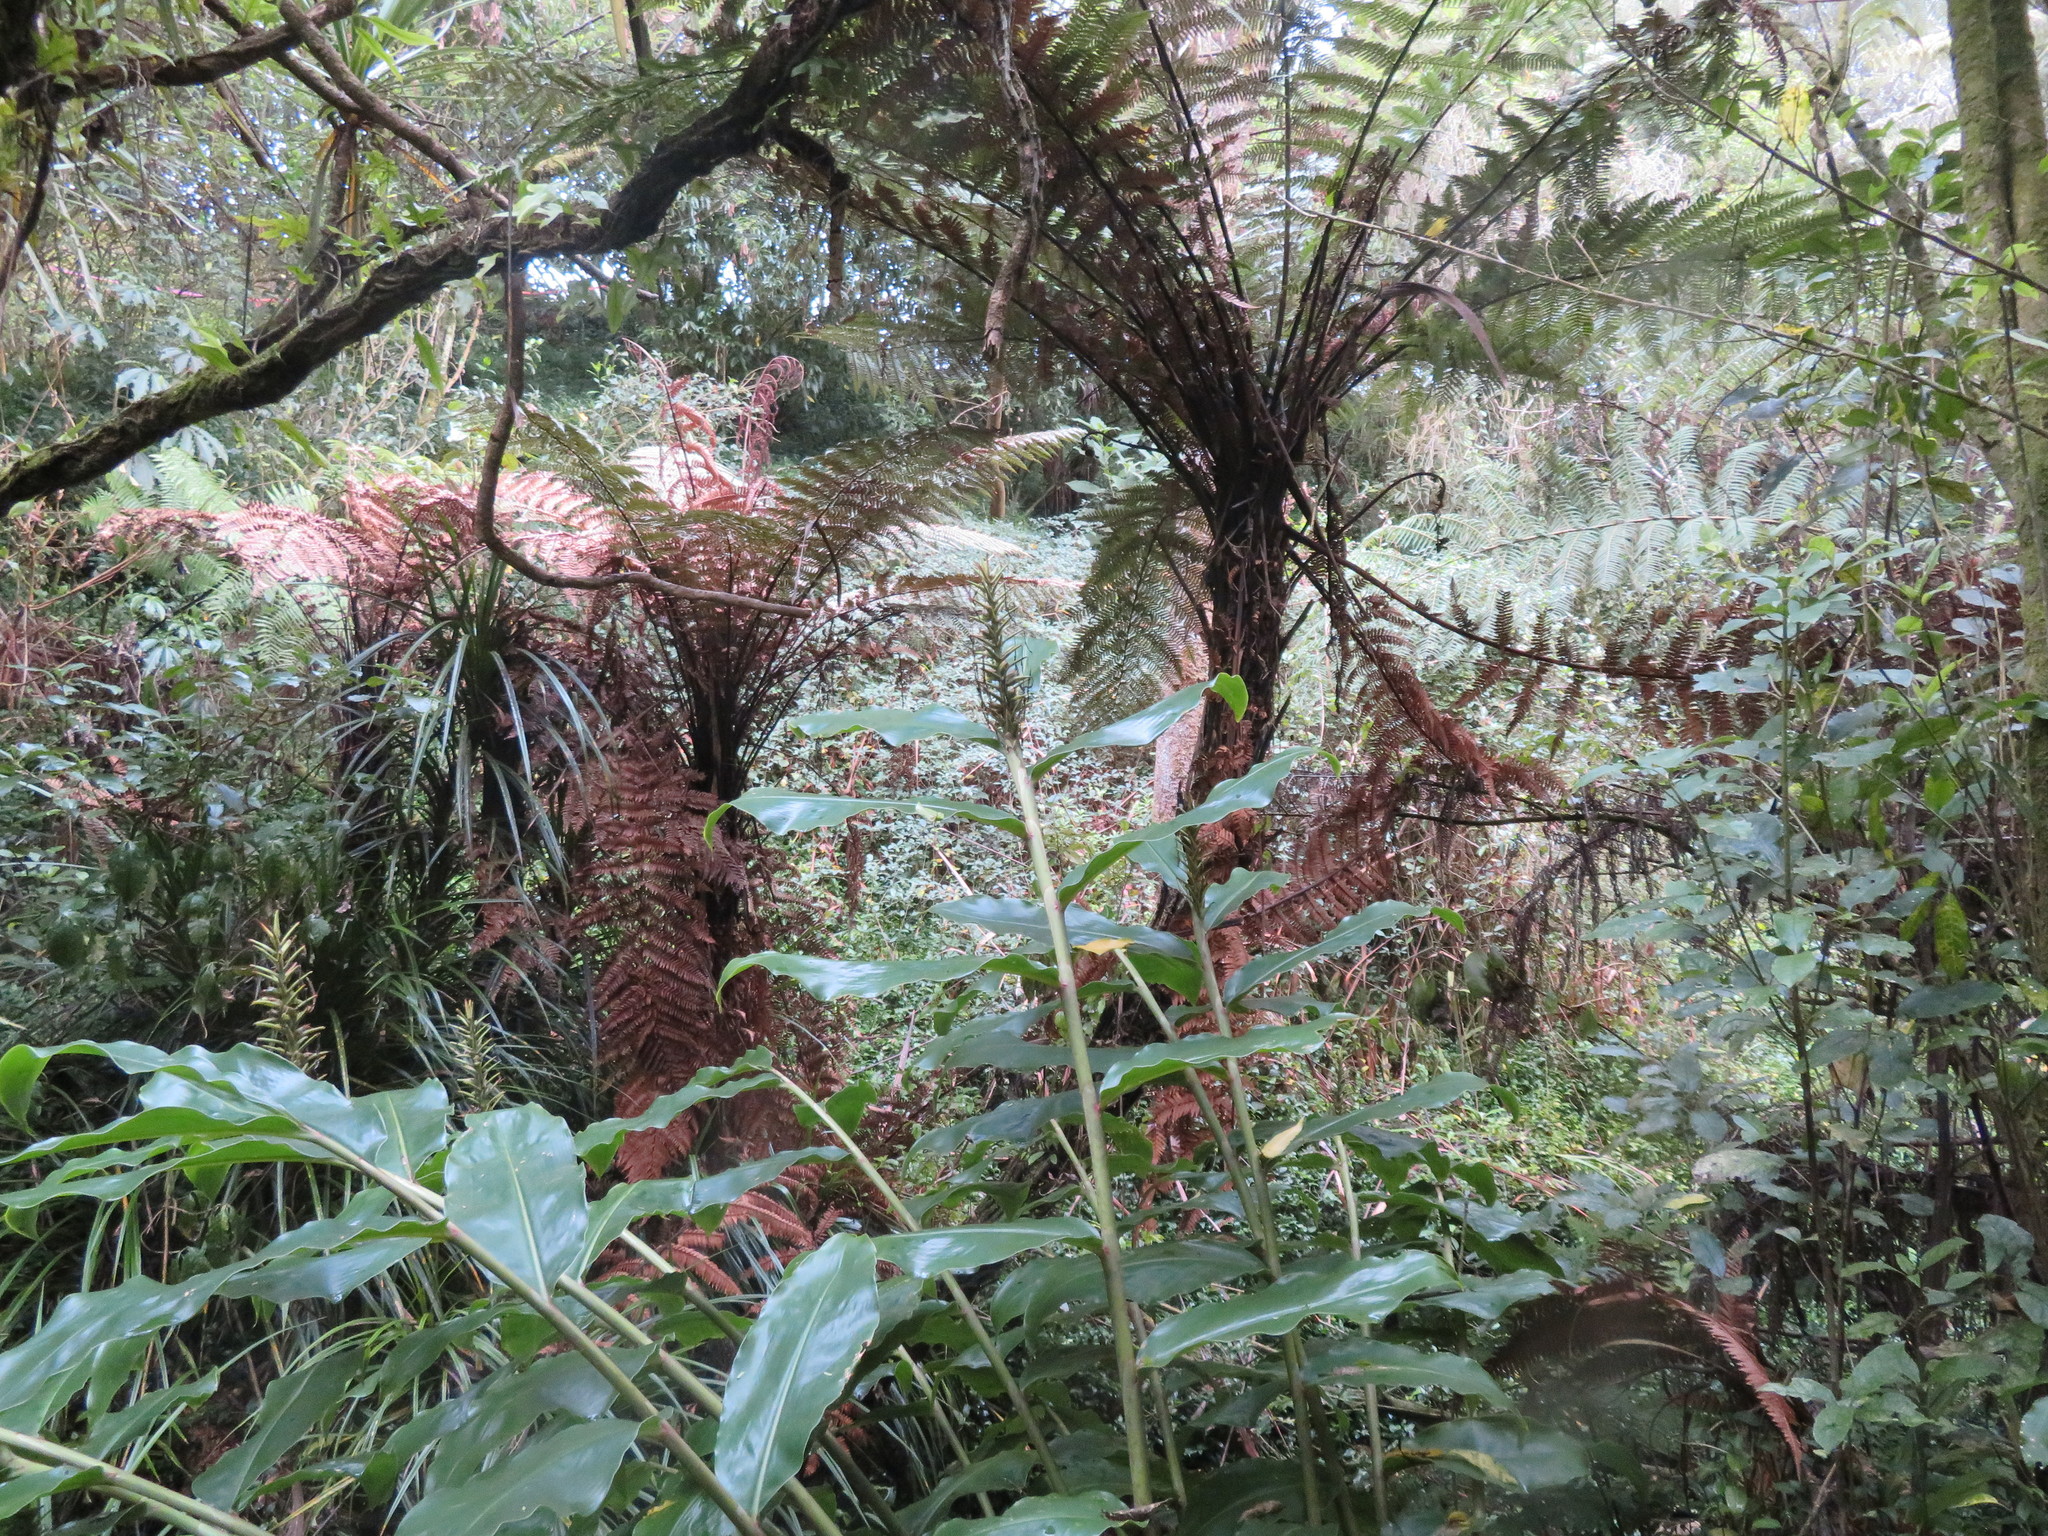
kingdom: Plantae
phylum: Tracheophyta
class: Liliopsida
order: Zingiberales
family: Zingiberaceae
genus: Hedychium
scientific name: Hedychium gardnerianum
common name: Himalayan ginger
